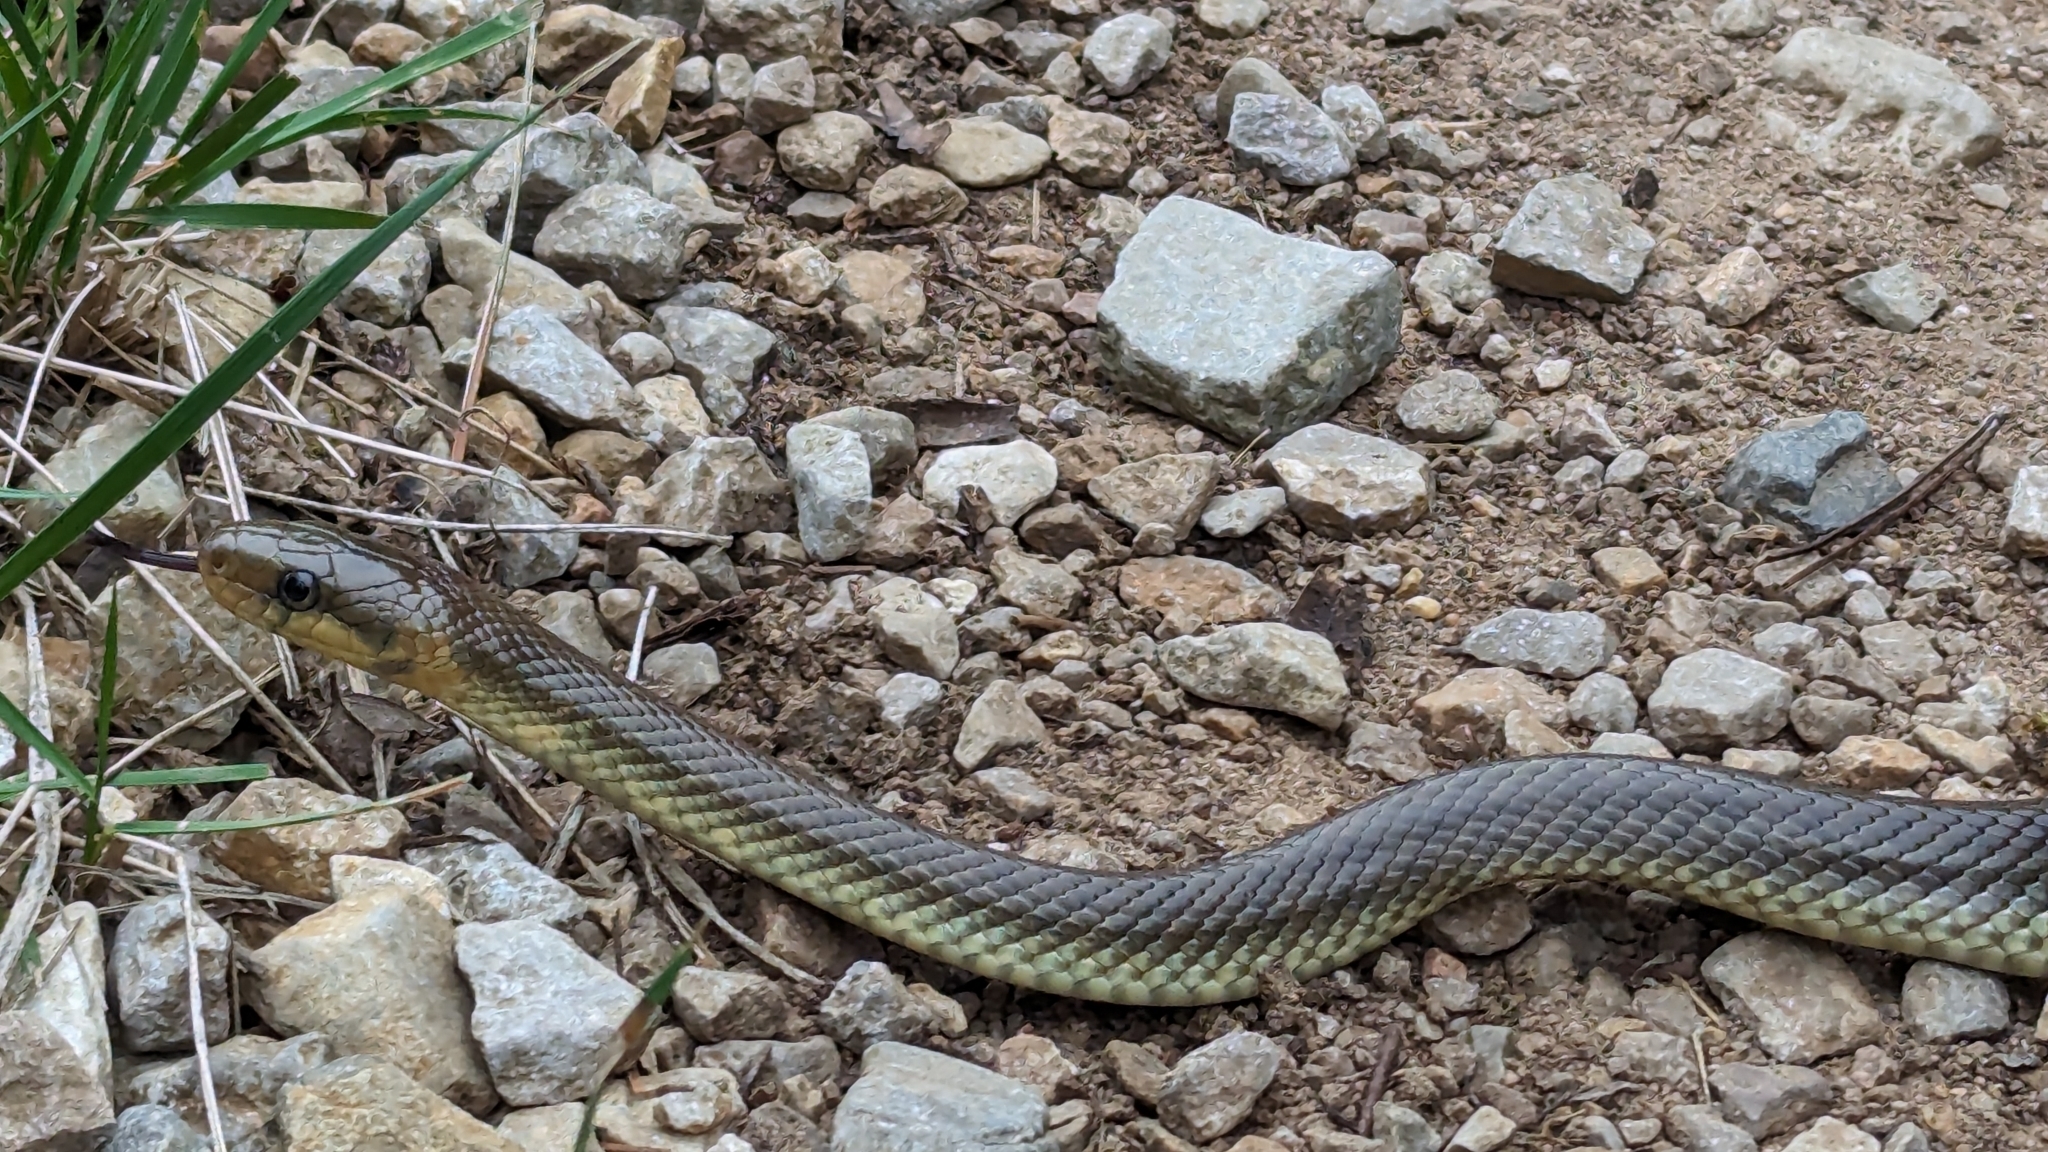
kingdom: Animalia
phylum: Chordata
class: Squamata
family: Colubridae
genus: Zamenis
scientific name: Zamenis longissimus
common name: Aesculapean snake
